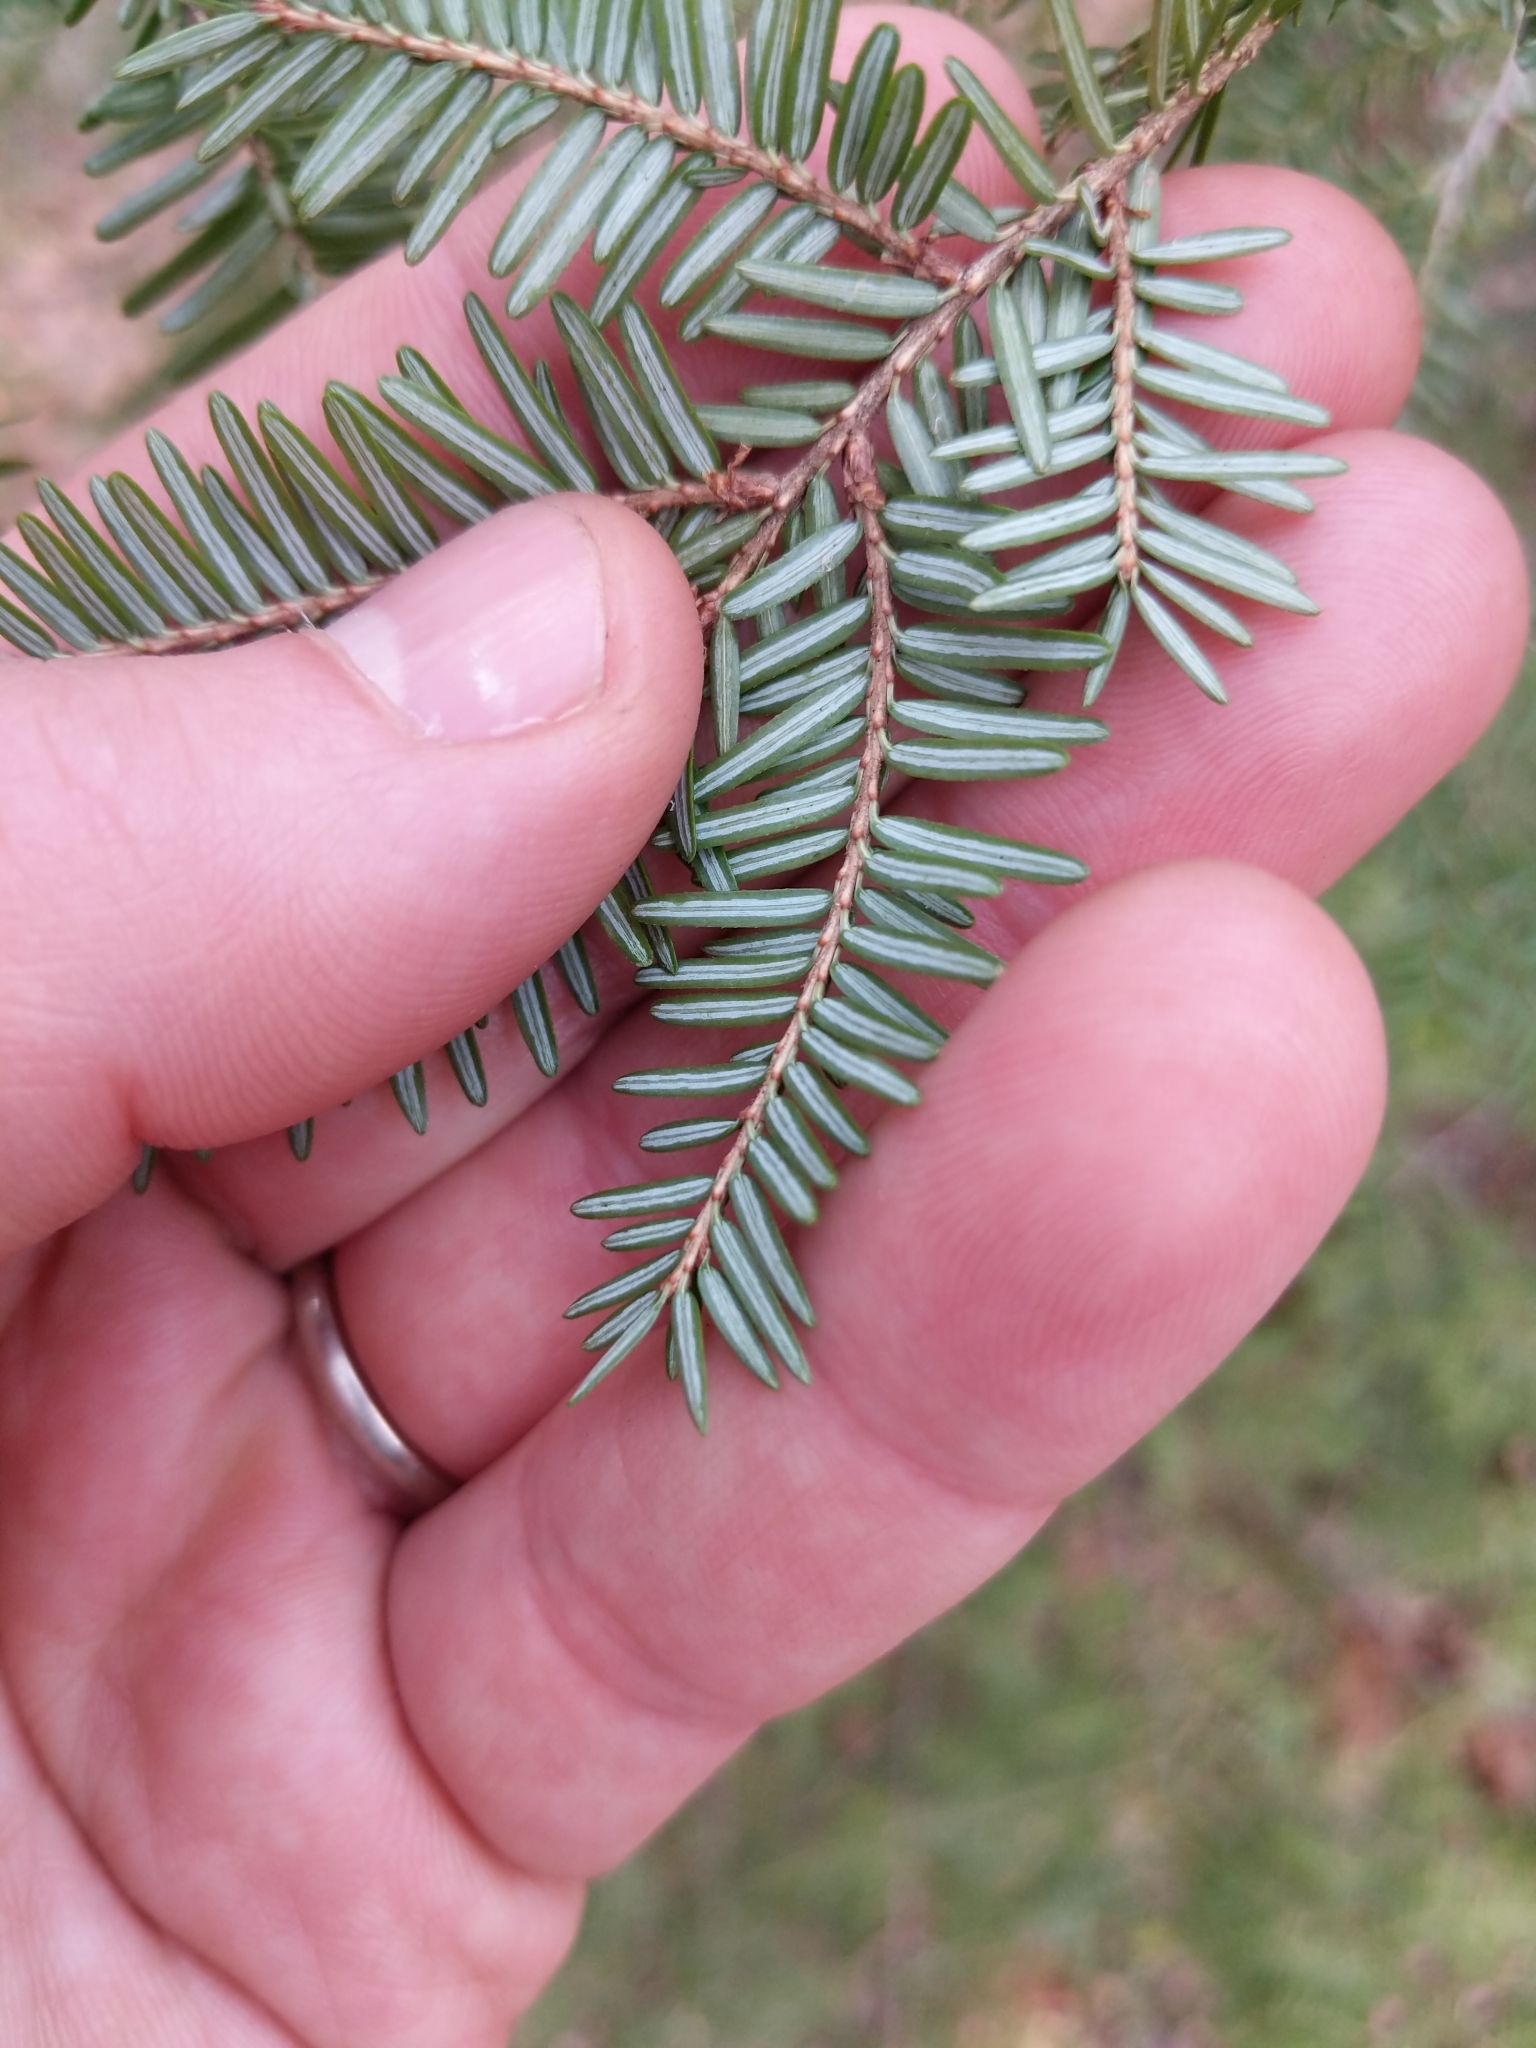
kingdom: Plantae
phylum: Tracheophyta
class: Pinopsida
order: Pinales
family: Pinaceae
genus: Tsuga
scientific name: Tsuga canadensis
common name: Eastern hemlock
